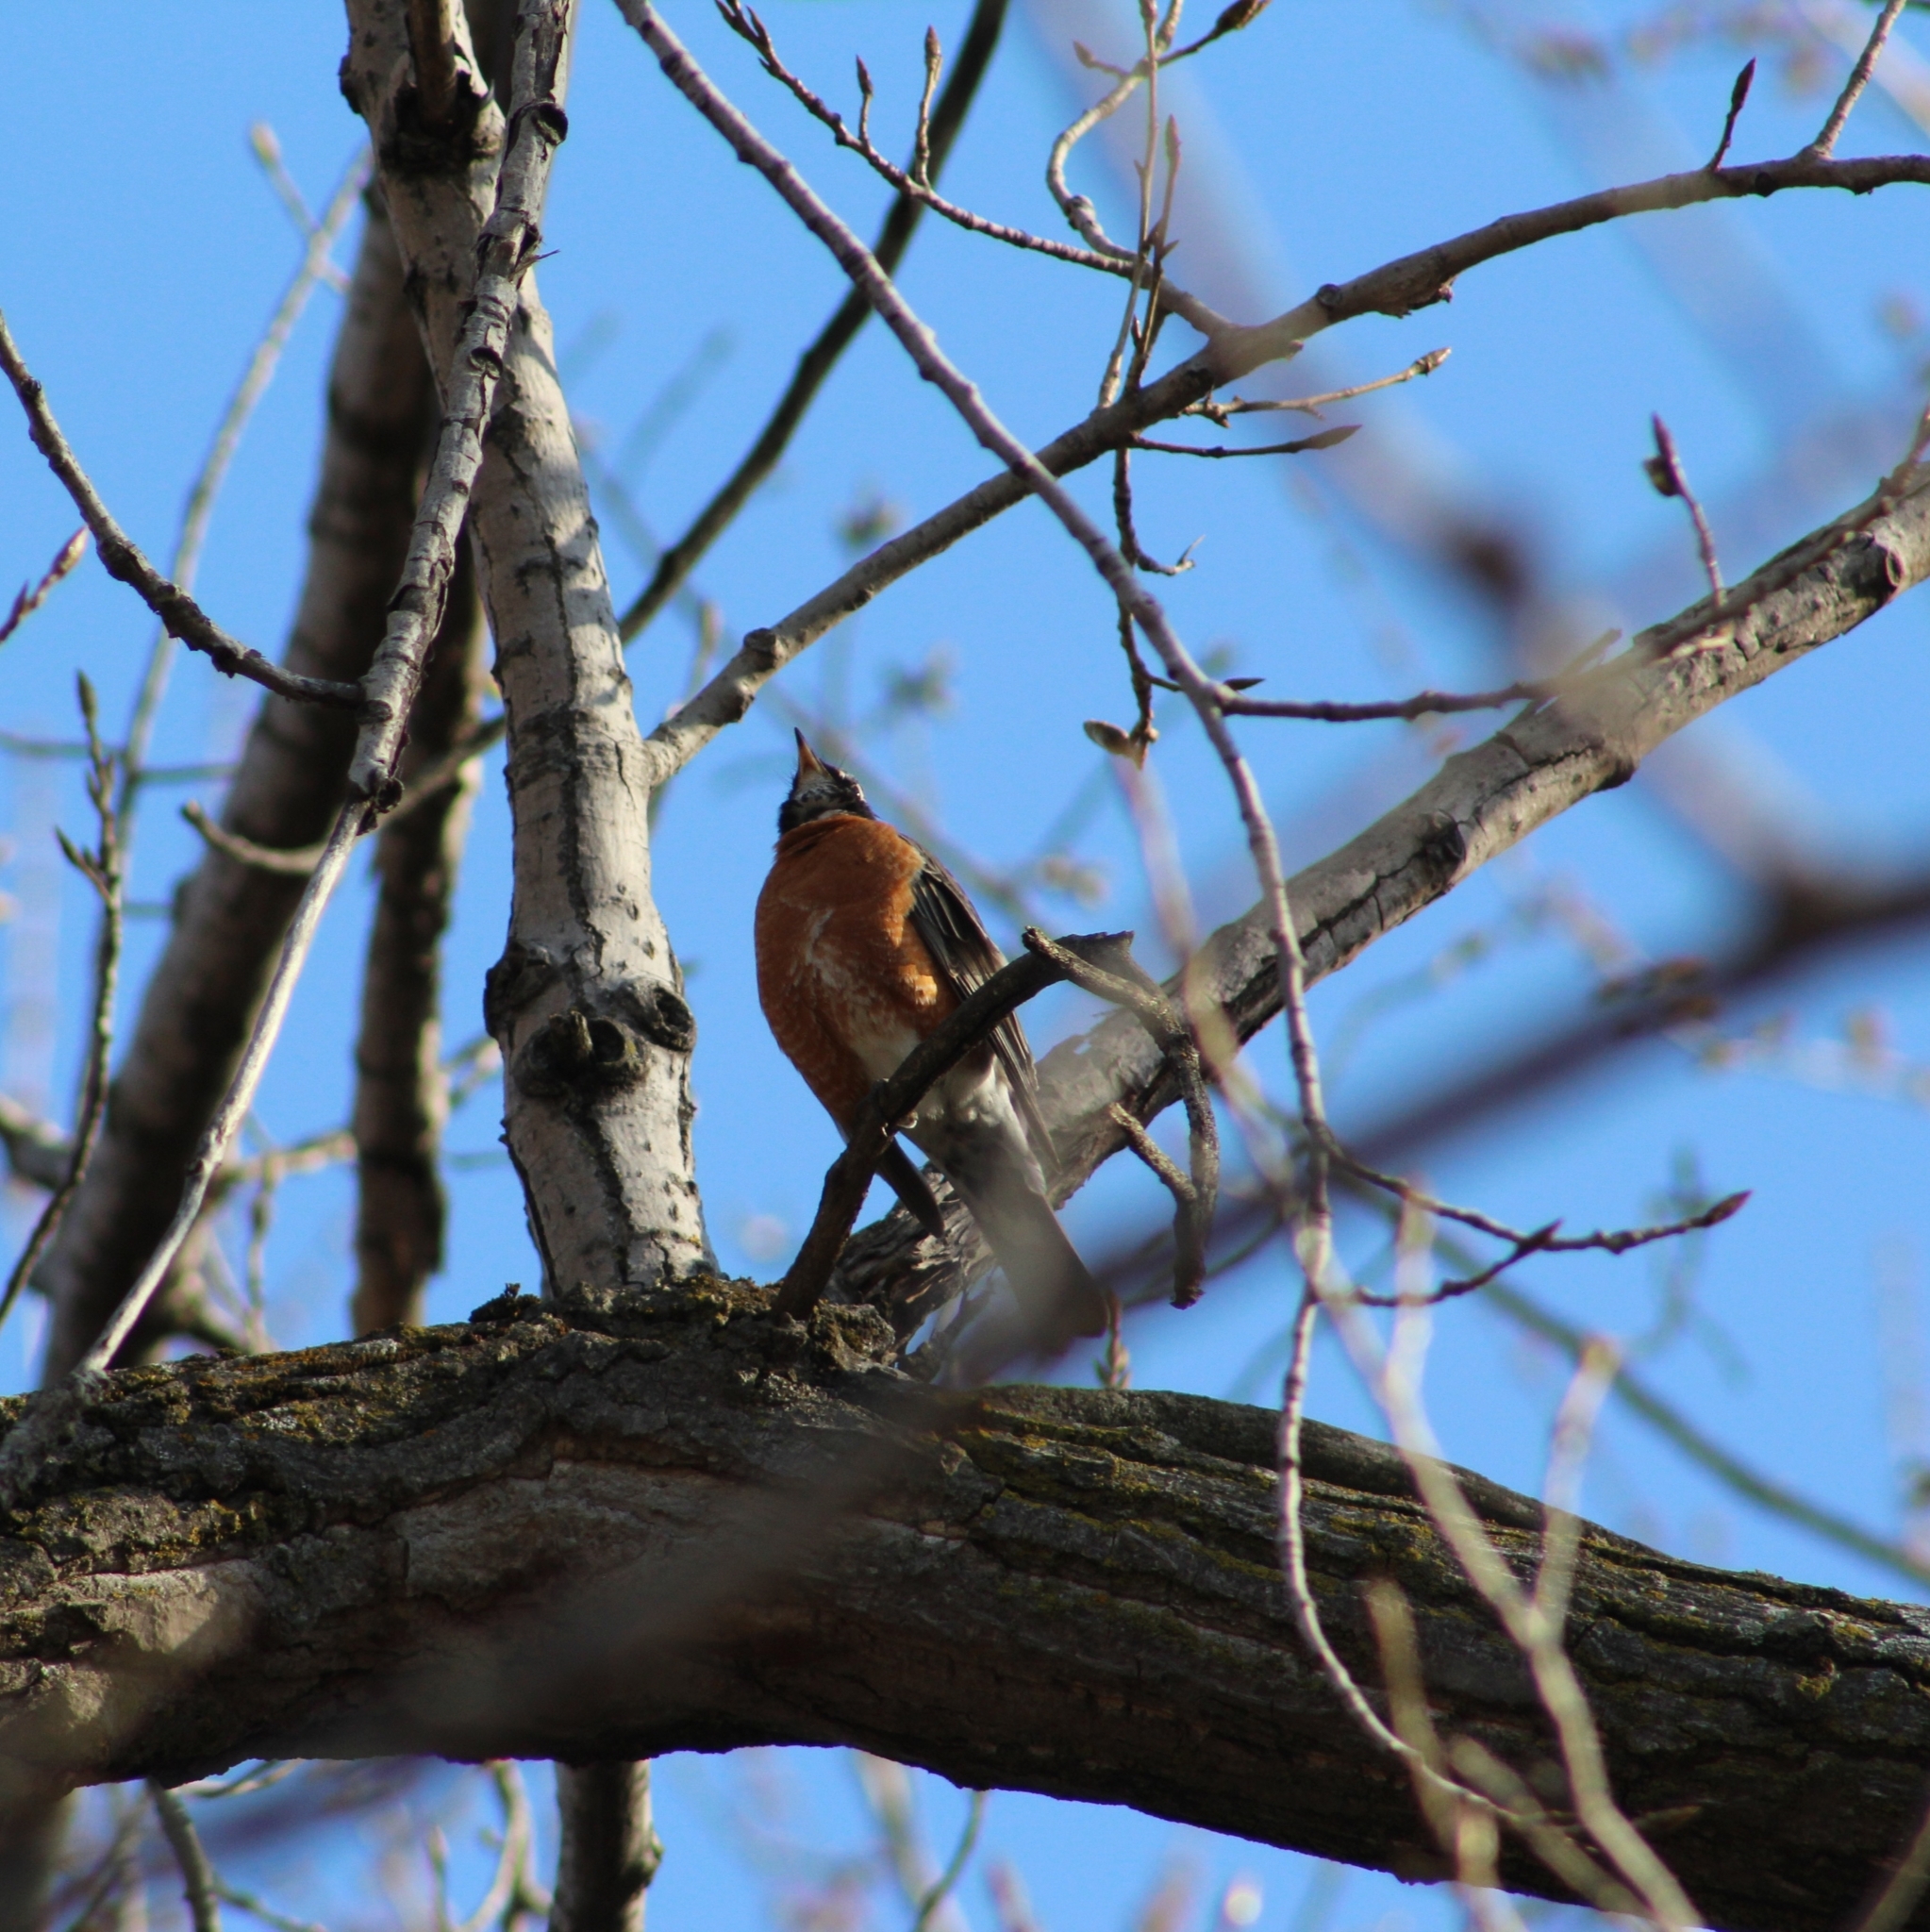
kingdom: Animalia
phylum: Chordata
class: Aves
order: Passeriformes
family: Turdidae
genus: Turdus
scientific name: Turdus migratorius
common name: American robin
